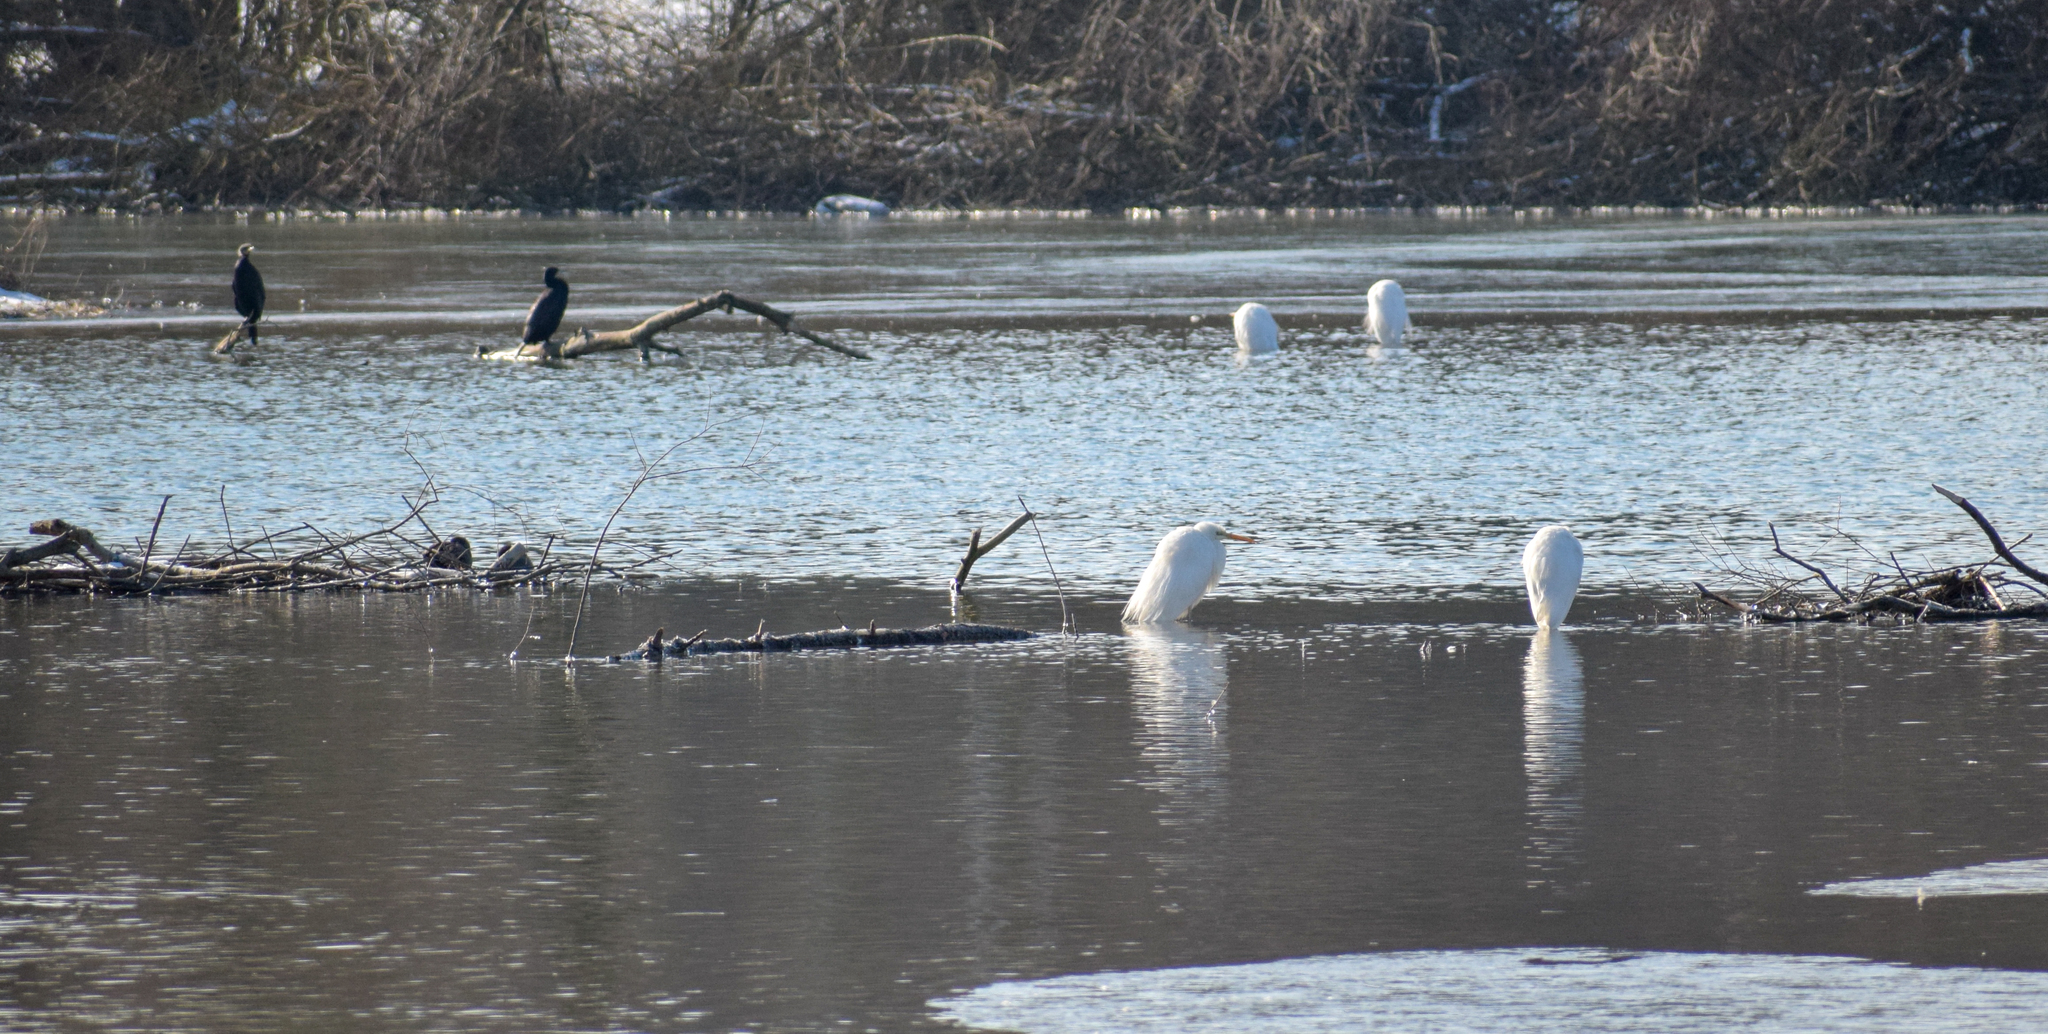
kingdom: Animalia
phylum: Chordata
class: Aves
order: Pelecaniformes
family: Ardeidae
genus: Ardea
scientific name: Ardea alba
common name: Great egret
